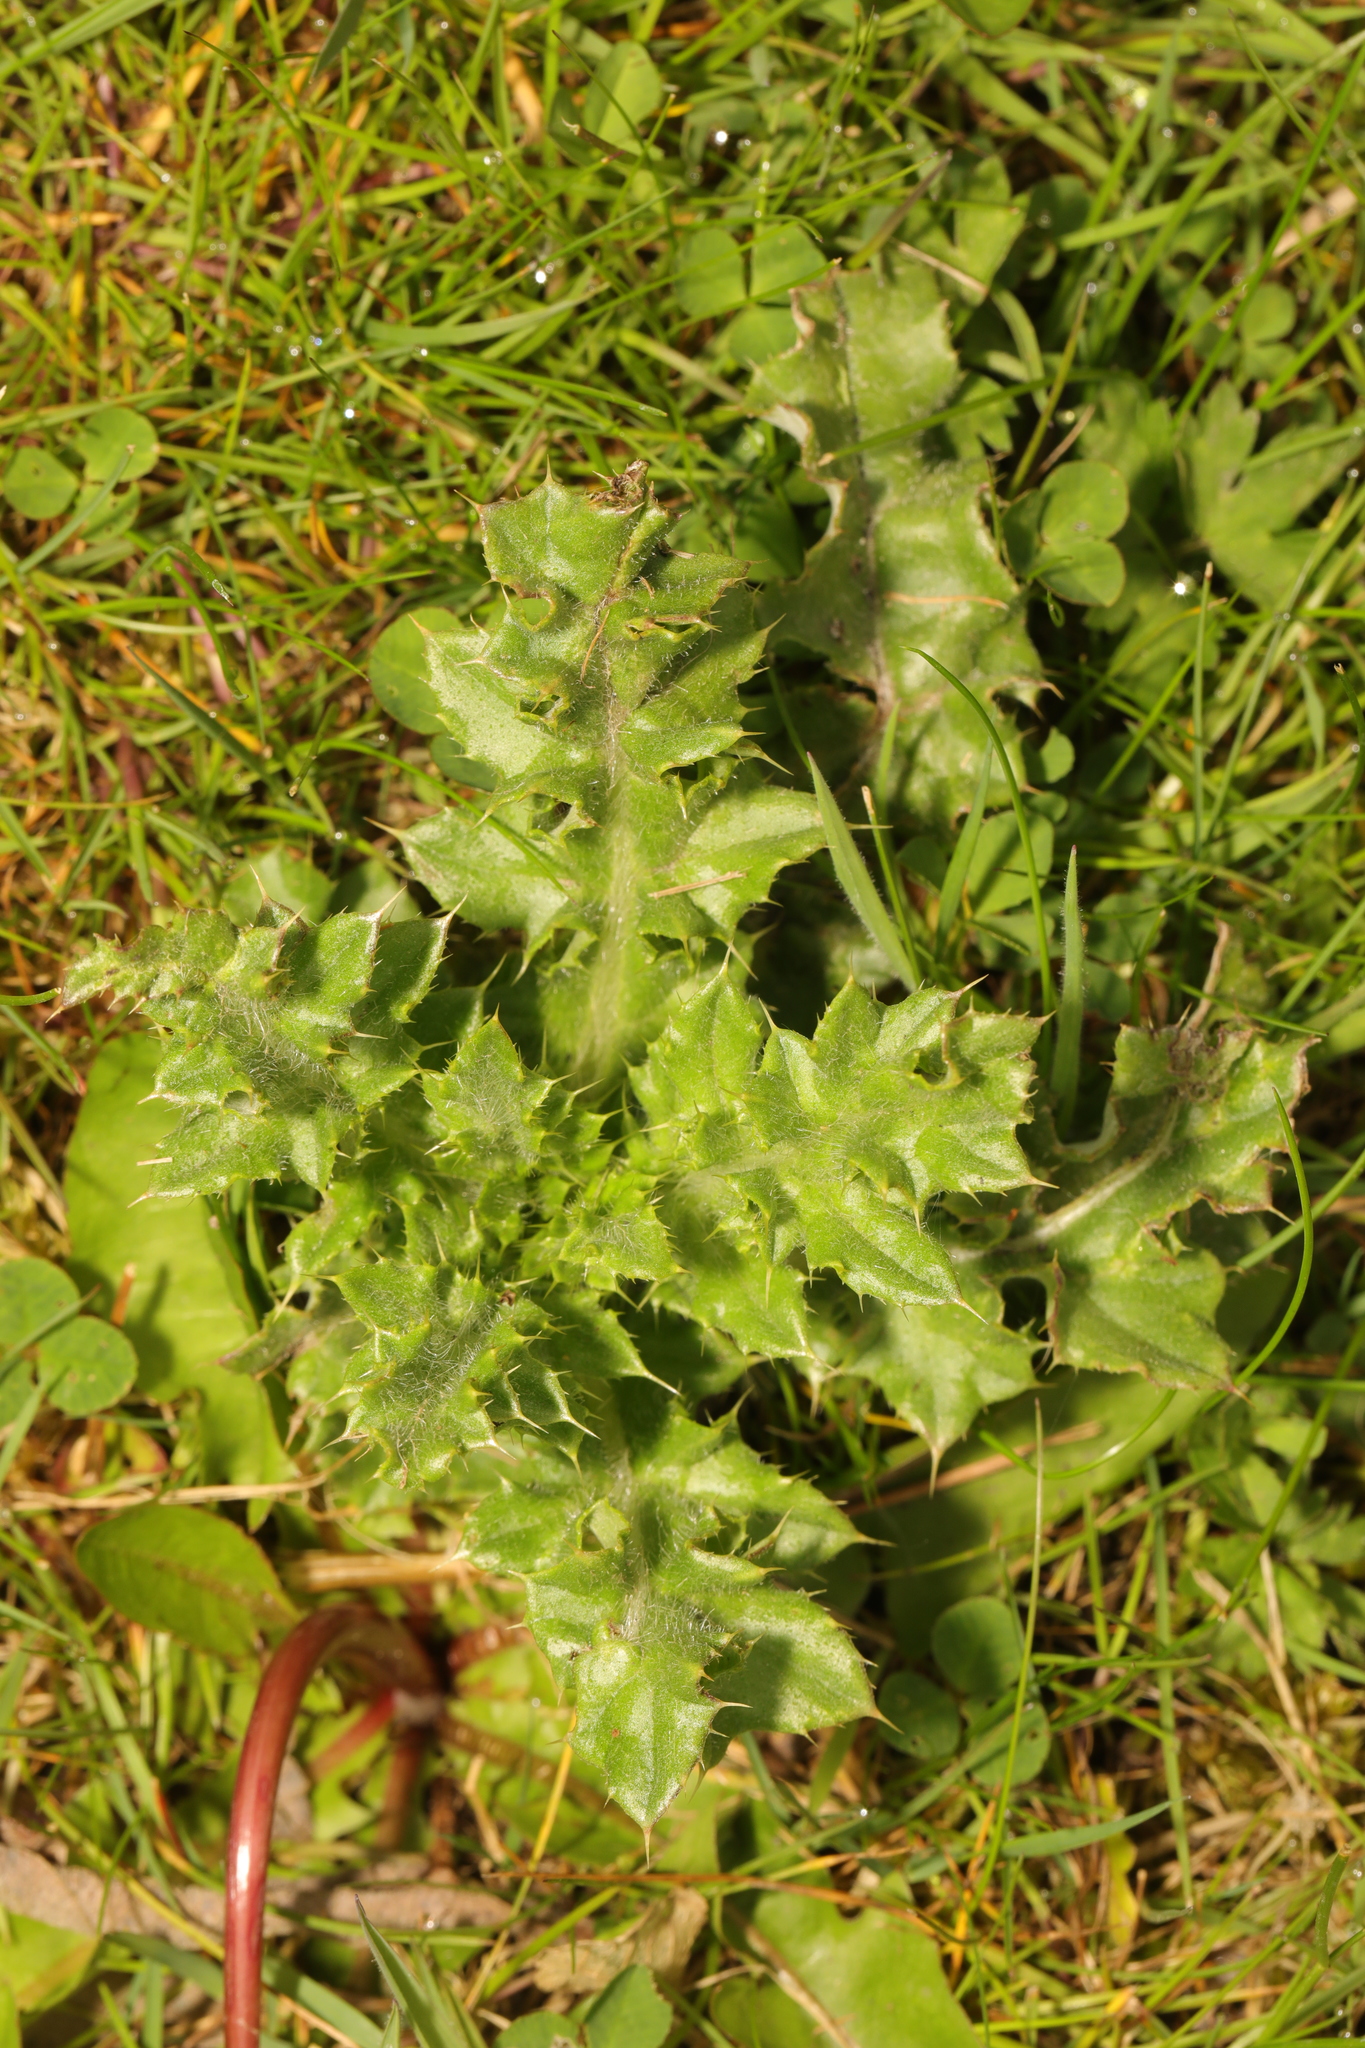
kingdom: Plantae
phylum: Tracheophyta
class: Magnoliopsida
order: Asterales
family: Asteraceae
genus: Cirsium
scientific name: Cirsium arvense
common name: Creeping thistle
